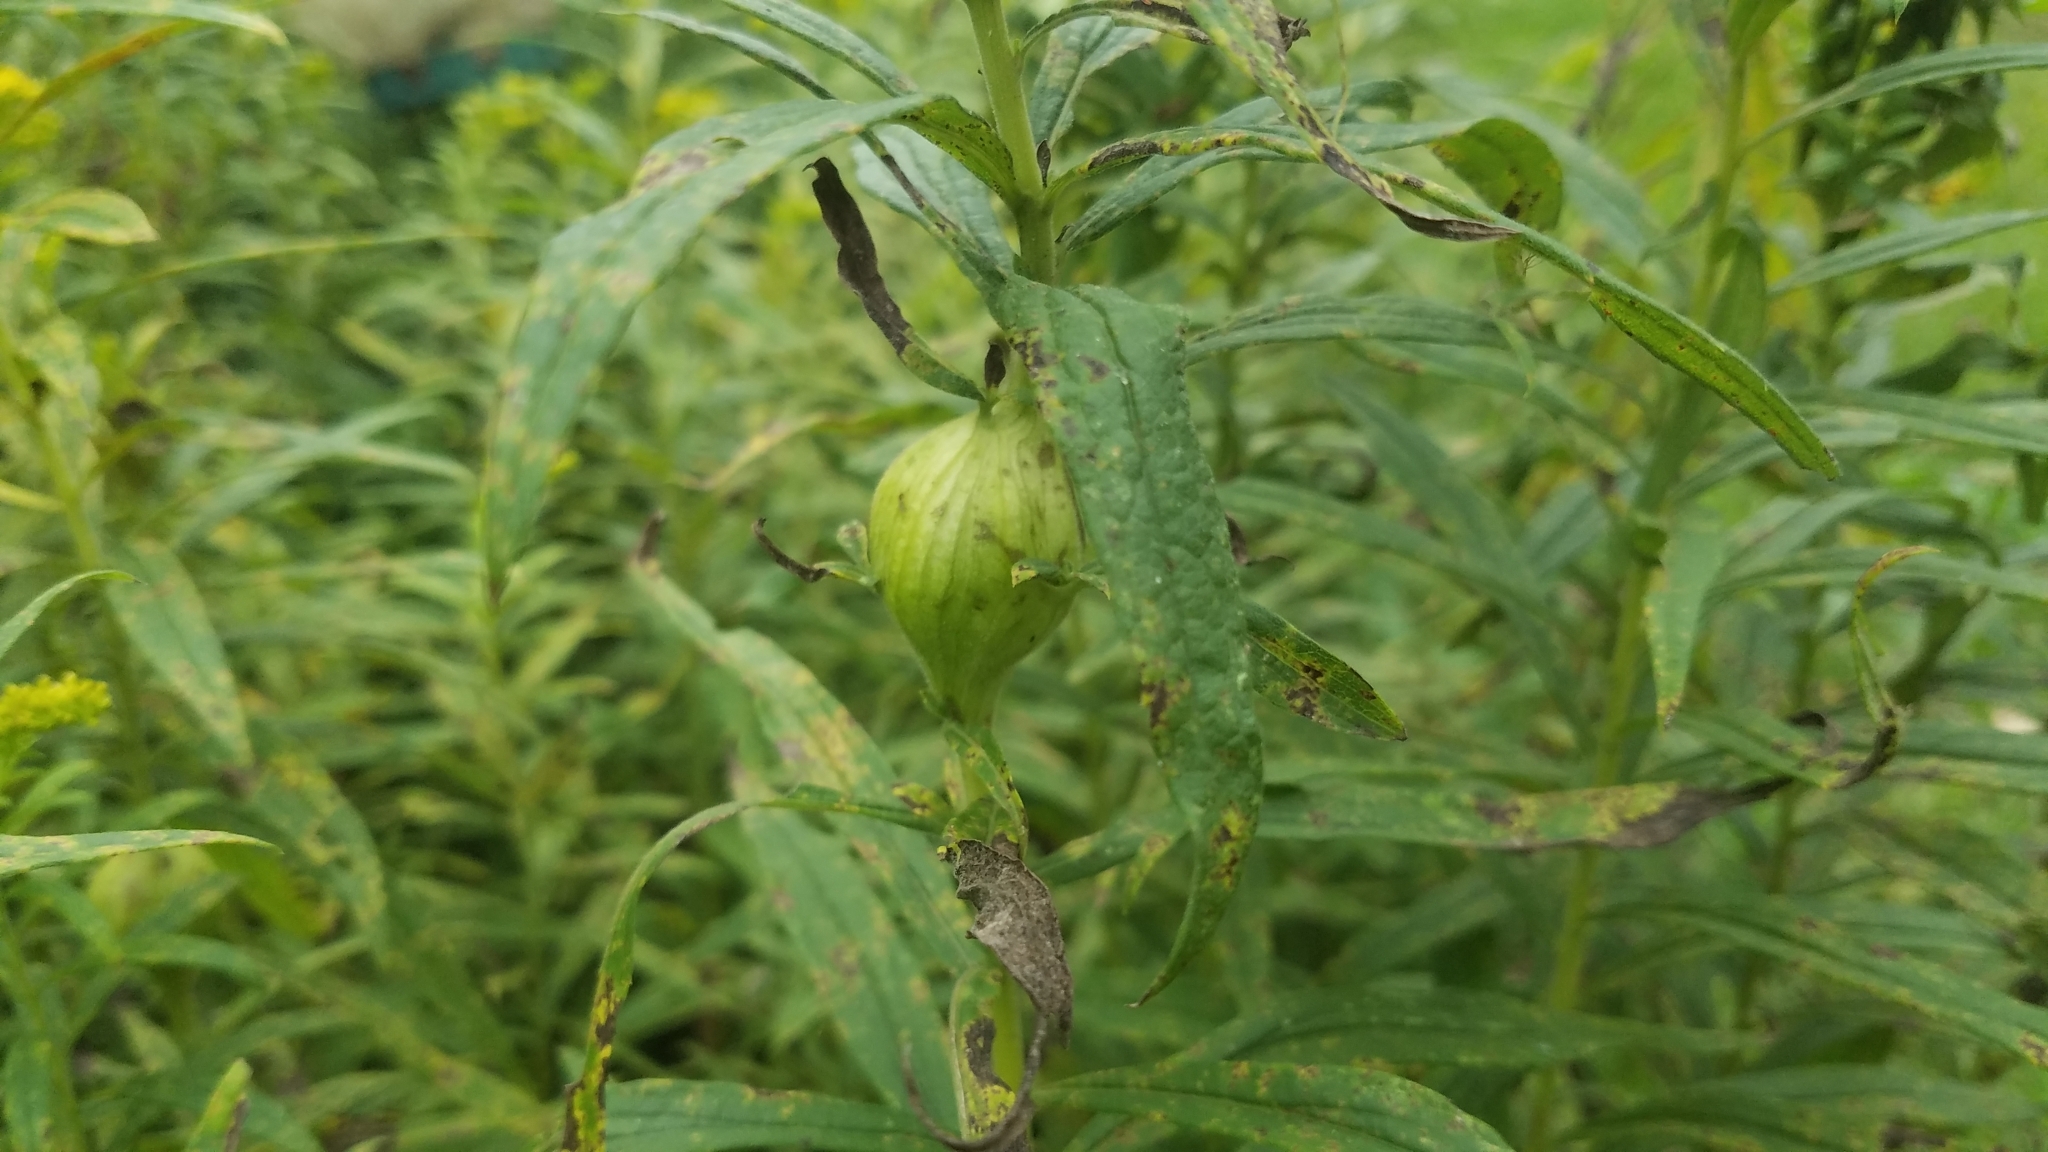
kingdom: Animalia
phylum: Arthropoda
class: Insecta
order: Diptera
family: Tephritidae
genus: Eurosta
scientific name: Eurosta solidaginis
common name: Goldenrod gall fly
